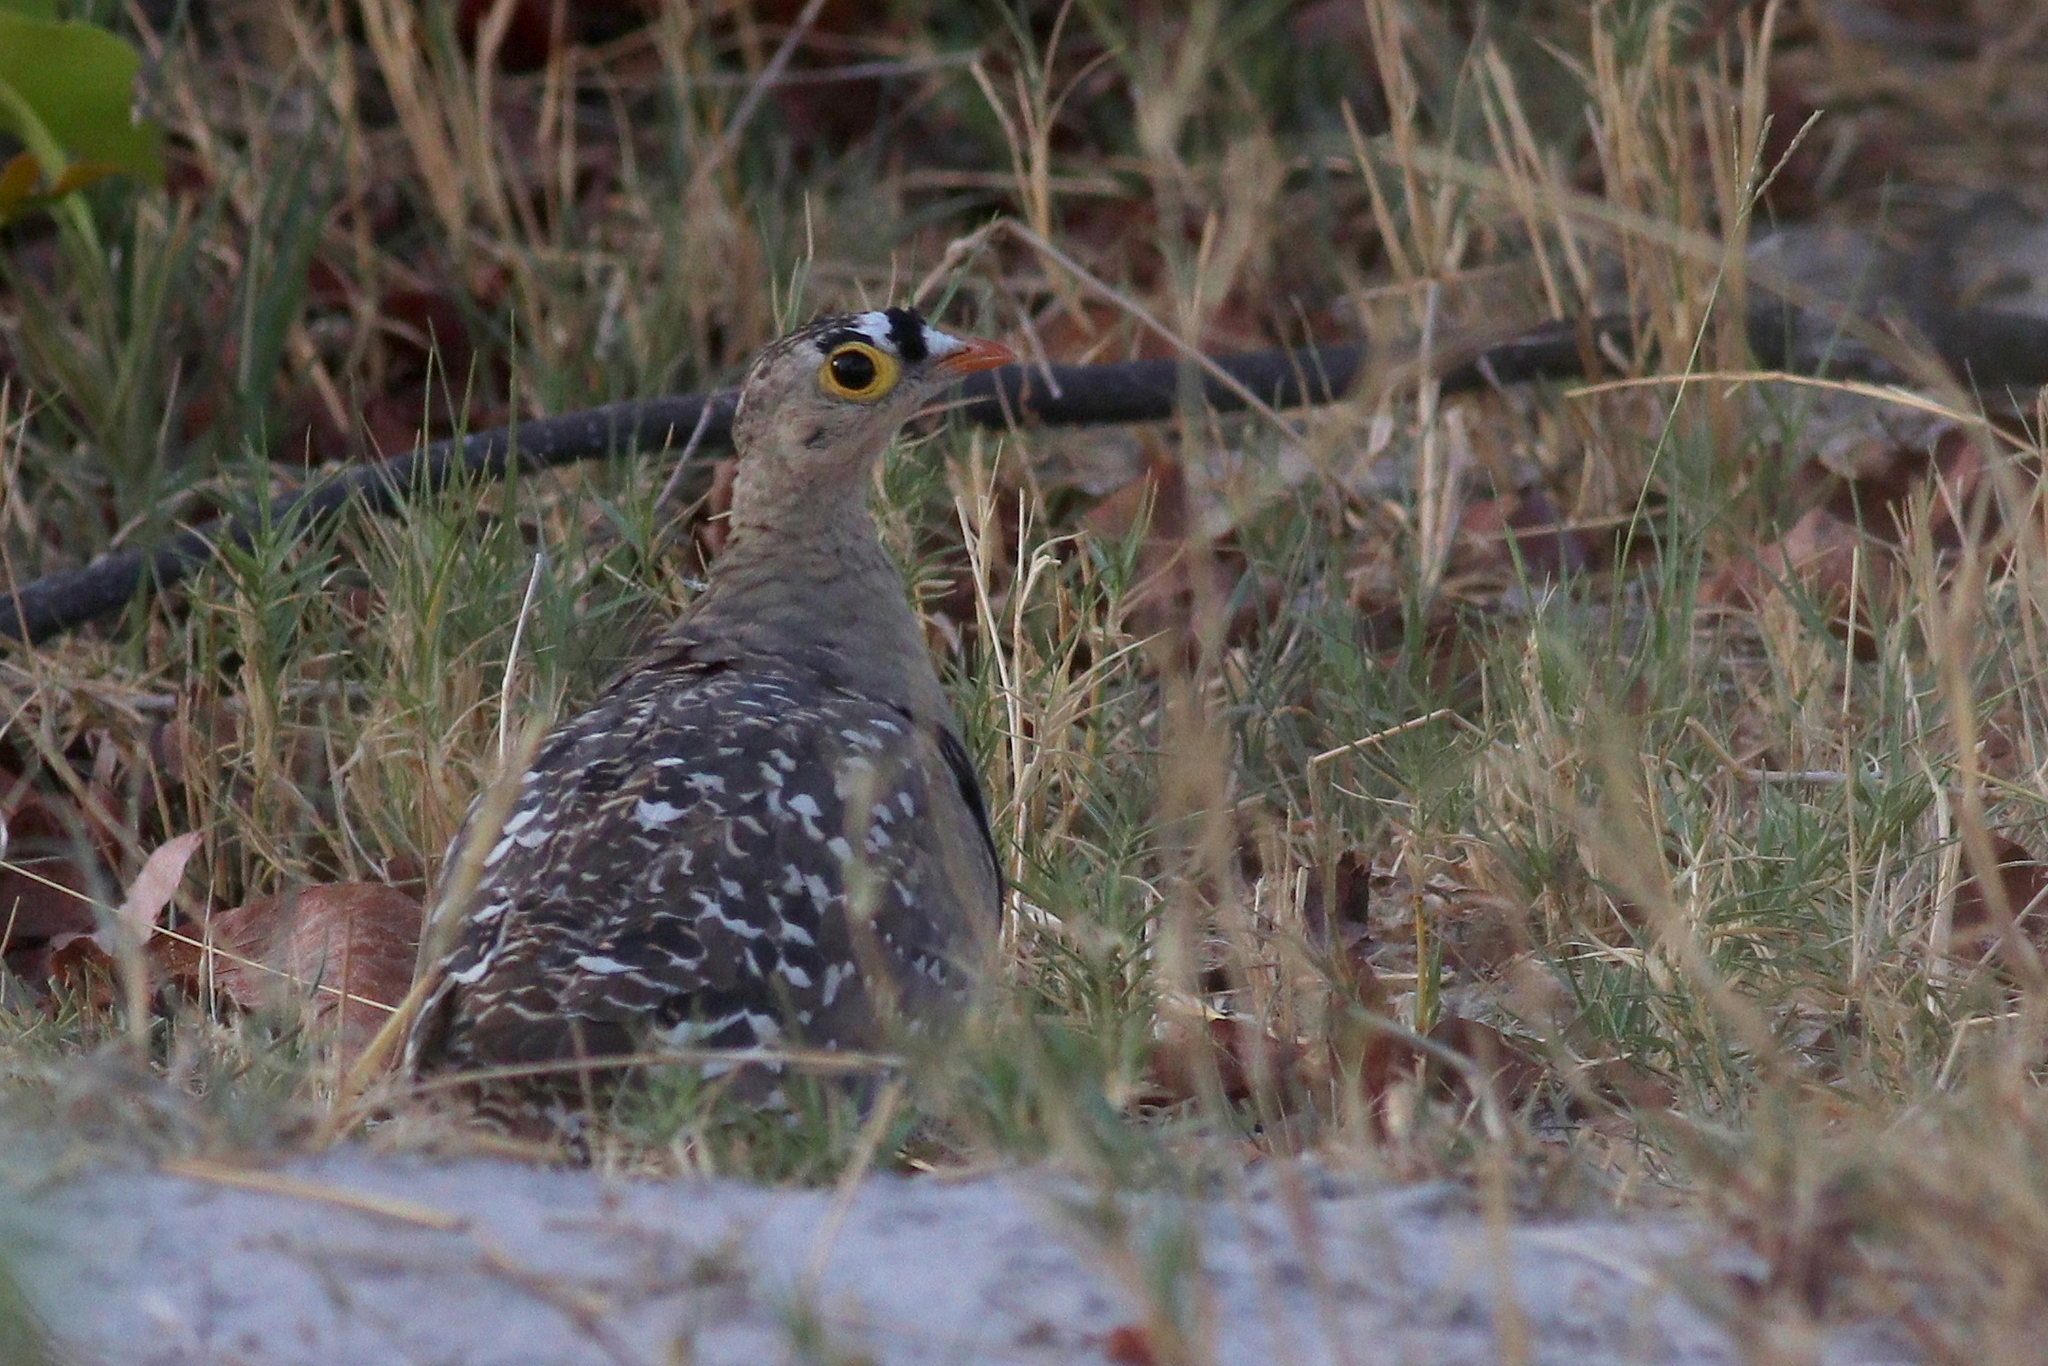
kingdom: Animalia
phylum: Chordata
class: Aves
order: Pteroclidiformes
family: Pteroclididae
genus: Pterocles
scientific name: Pterocles bicinctus
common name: Double-banded sandgrouse
